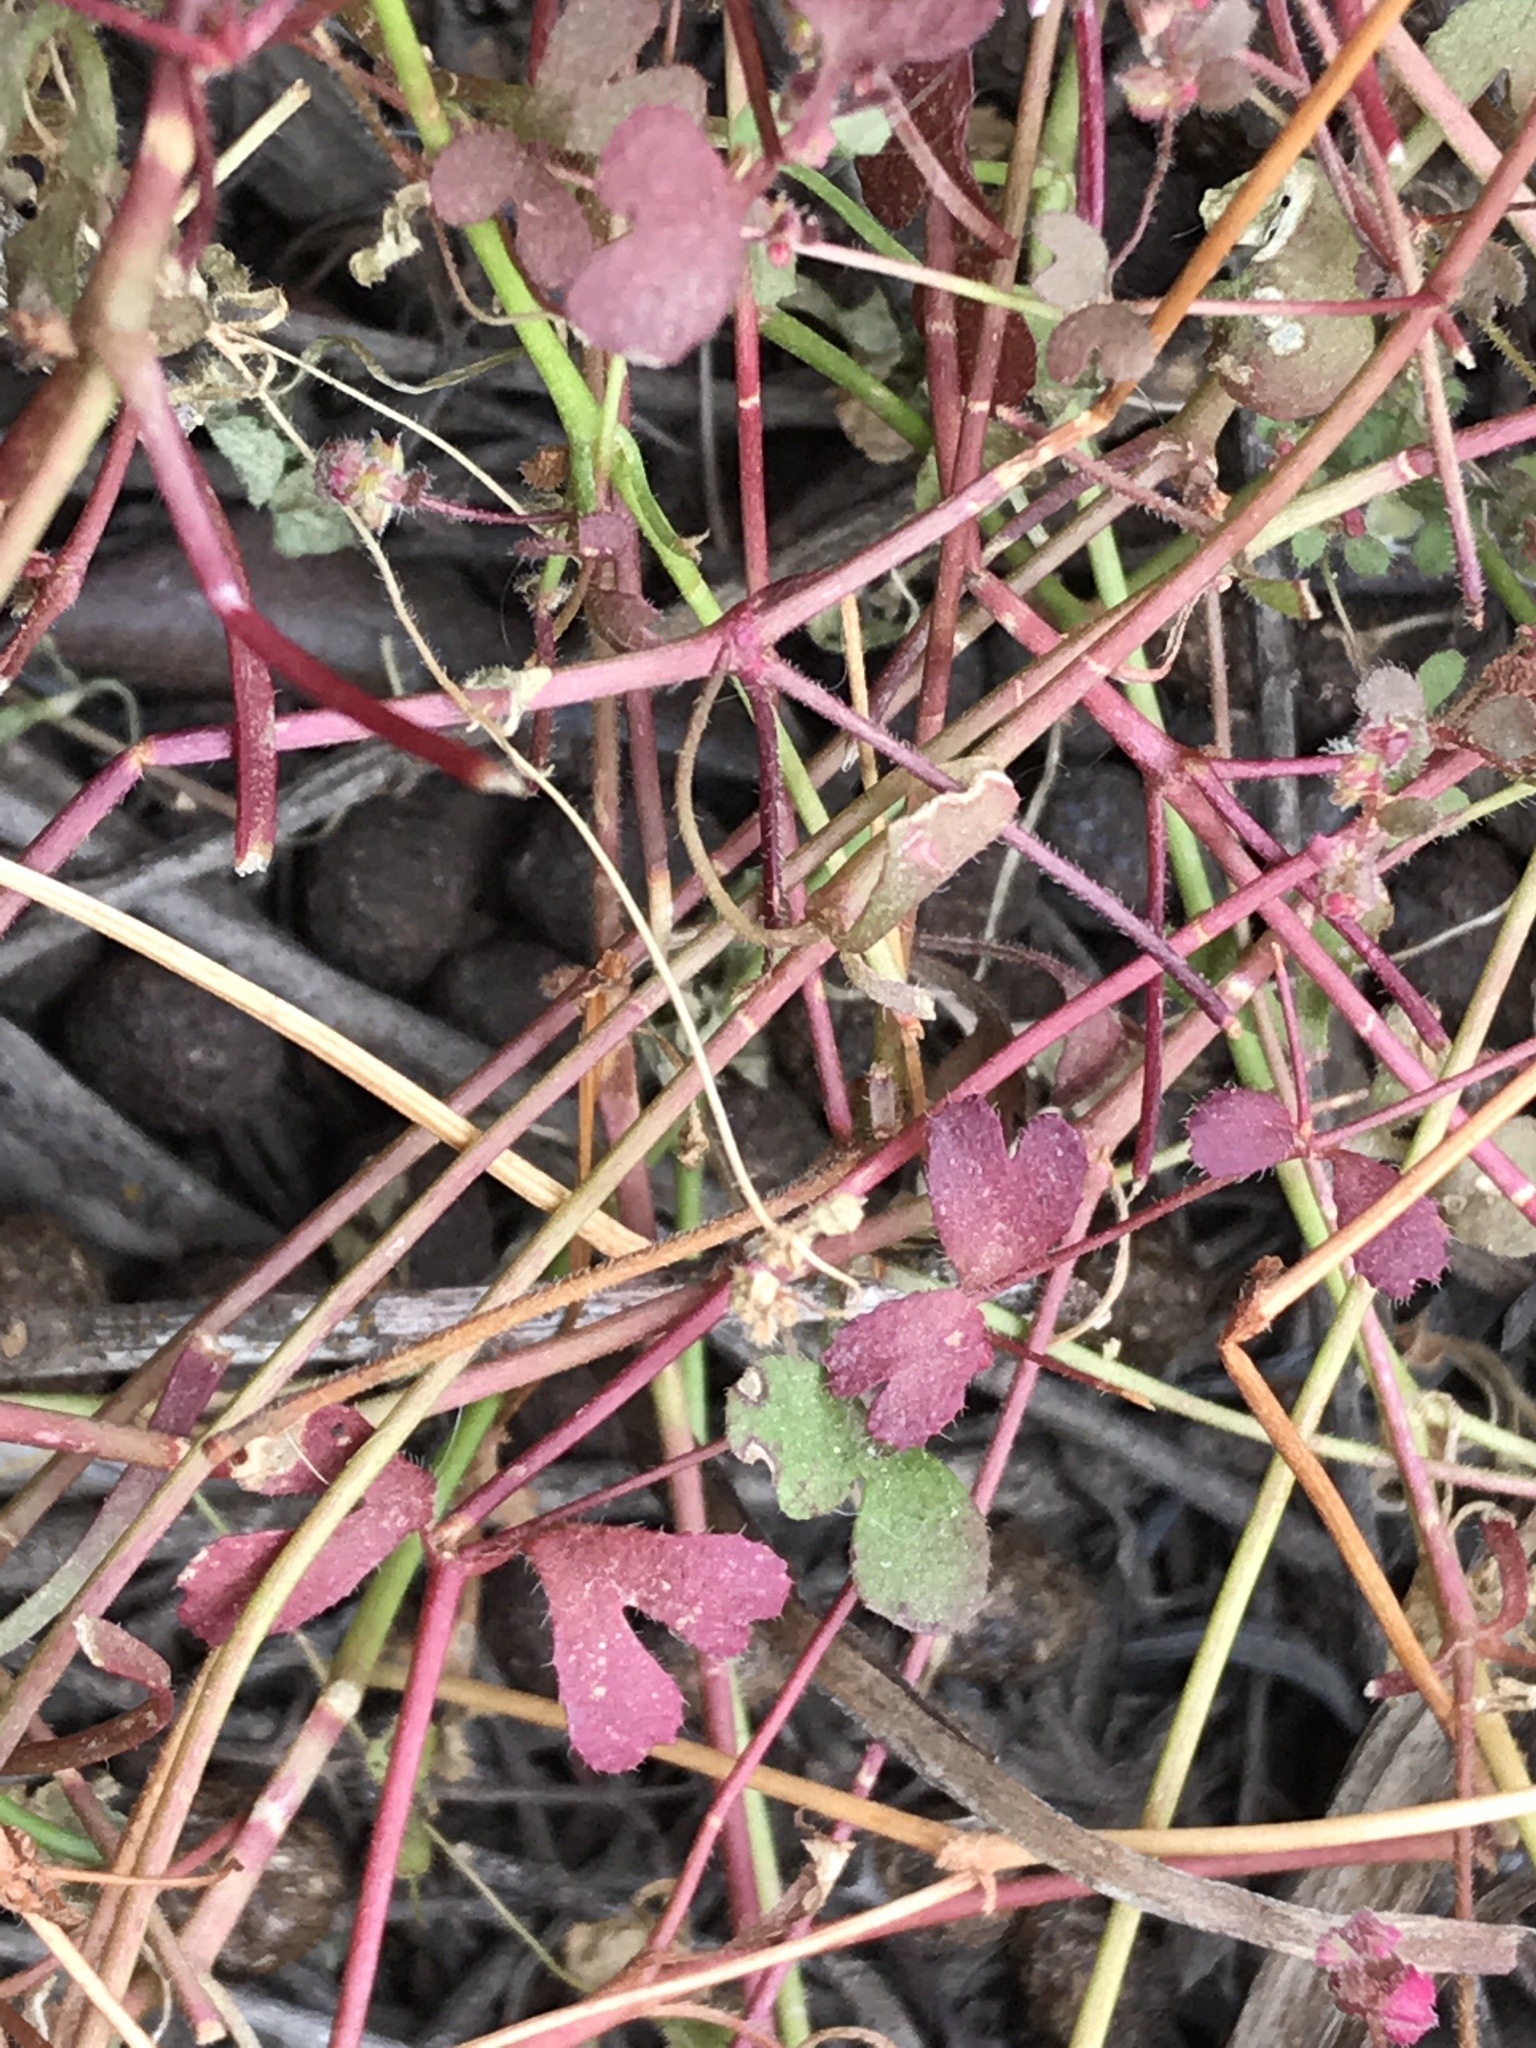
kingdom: Plantae
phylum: Tracheophyta
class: Magnoliopsida
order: Caryophyllales
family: Polygonaceae
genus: Pterostegia
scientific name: Pterostegia drymarioides
